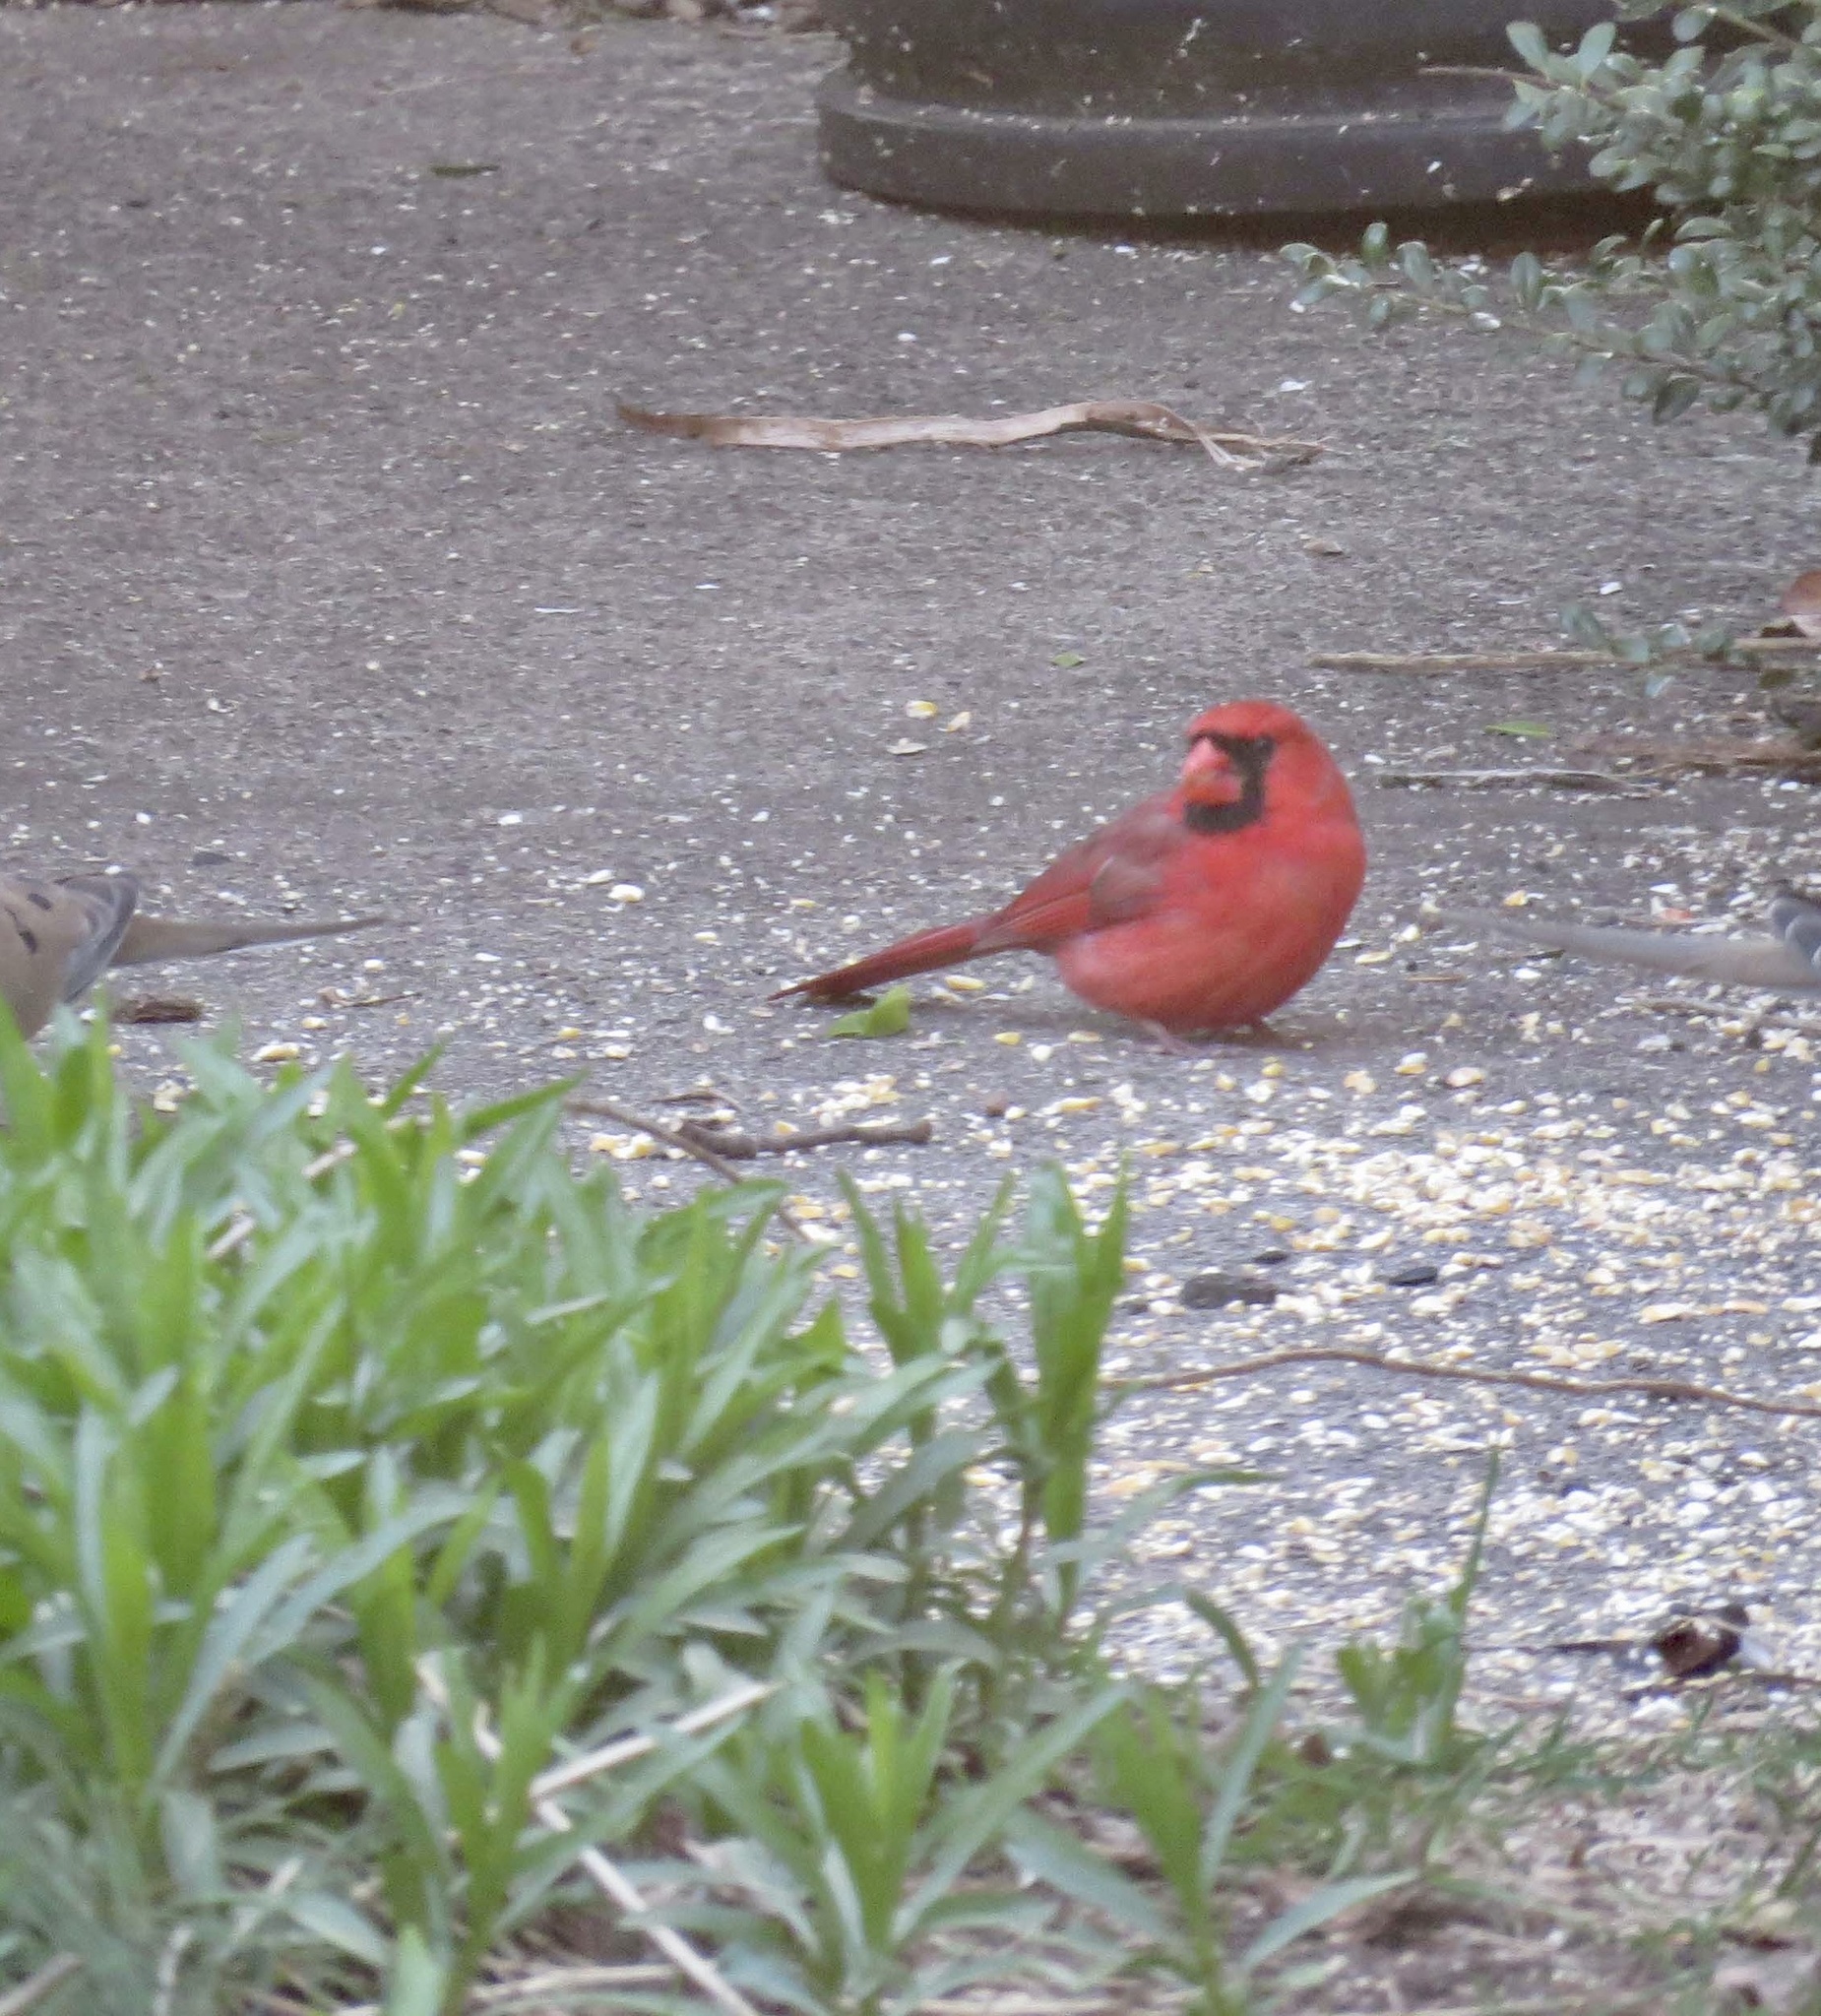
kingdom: Animalia
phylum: Chordata
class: Aves
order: Passeriformes
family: Cardinalidae
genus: Cardinalis
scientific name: Cardinalis cardinalis
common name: Northern cardinal
